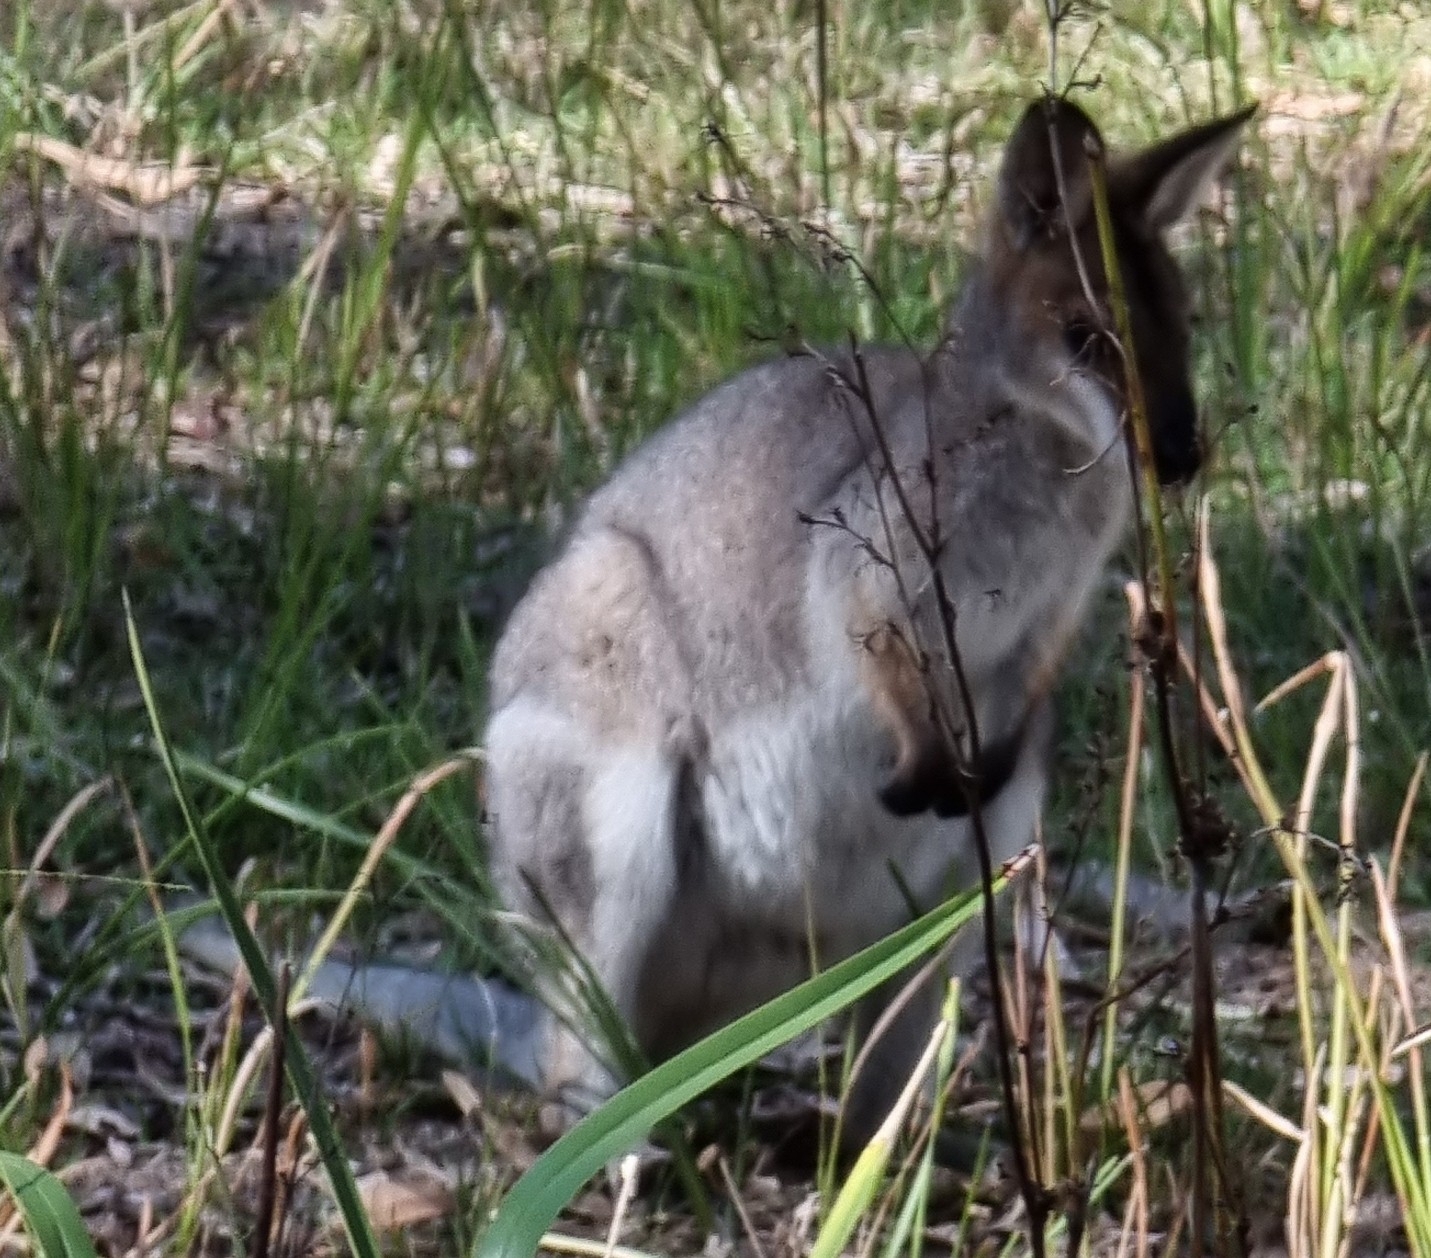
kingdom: Animalia
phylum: Chordata
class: Mammalia
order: Diprotodontia
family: Macropodidae
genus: Notamacropus
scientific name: Notamacropus rufogriseus
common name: Red-necked wallaby
